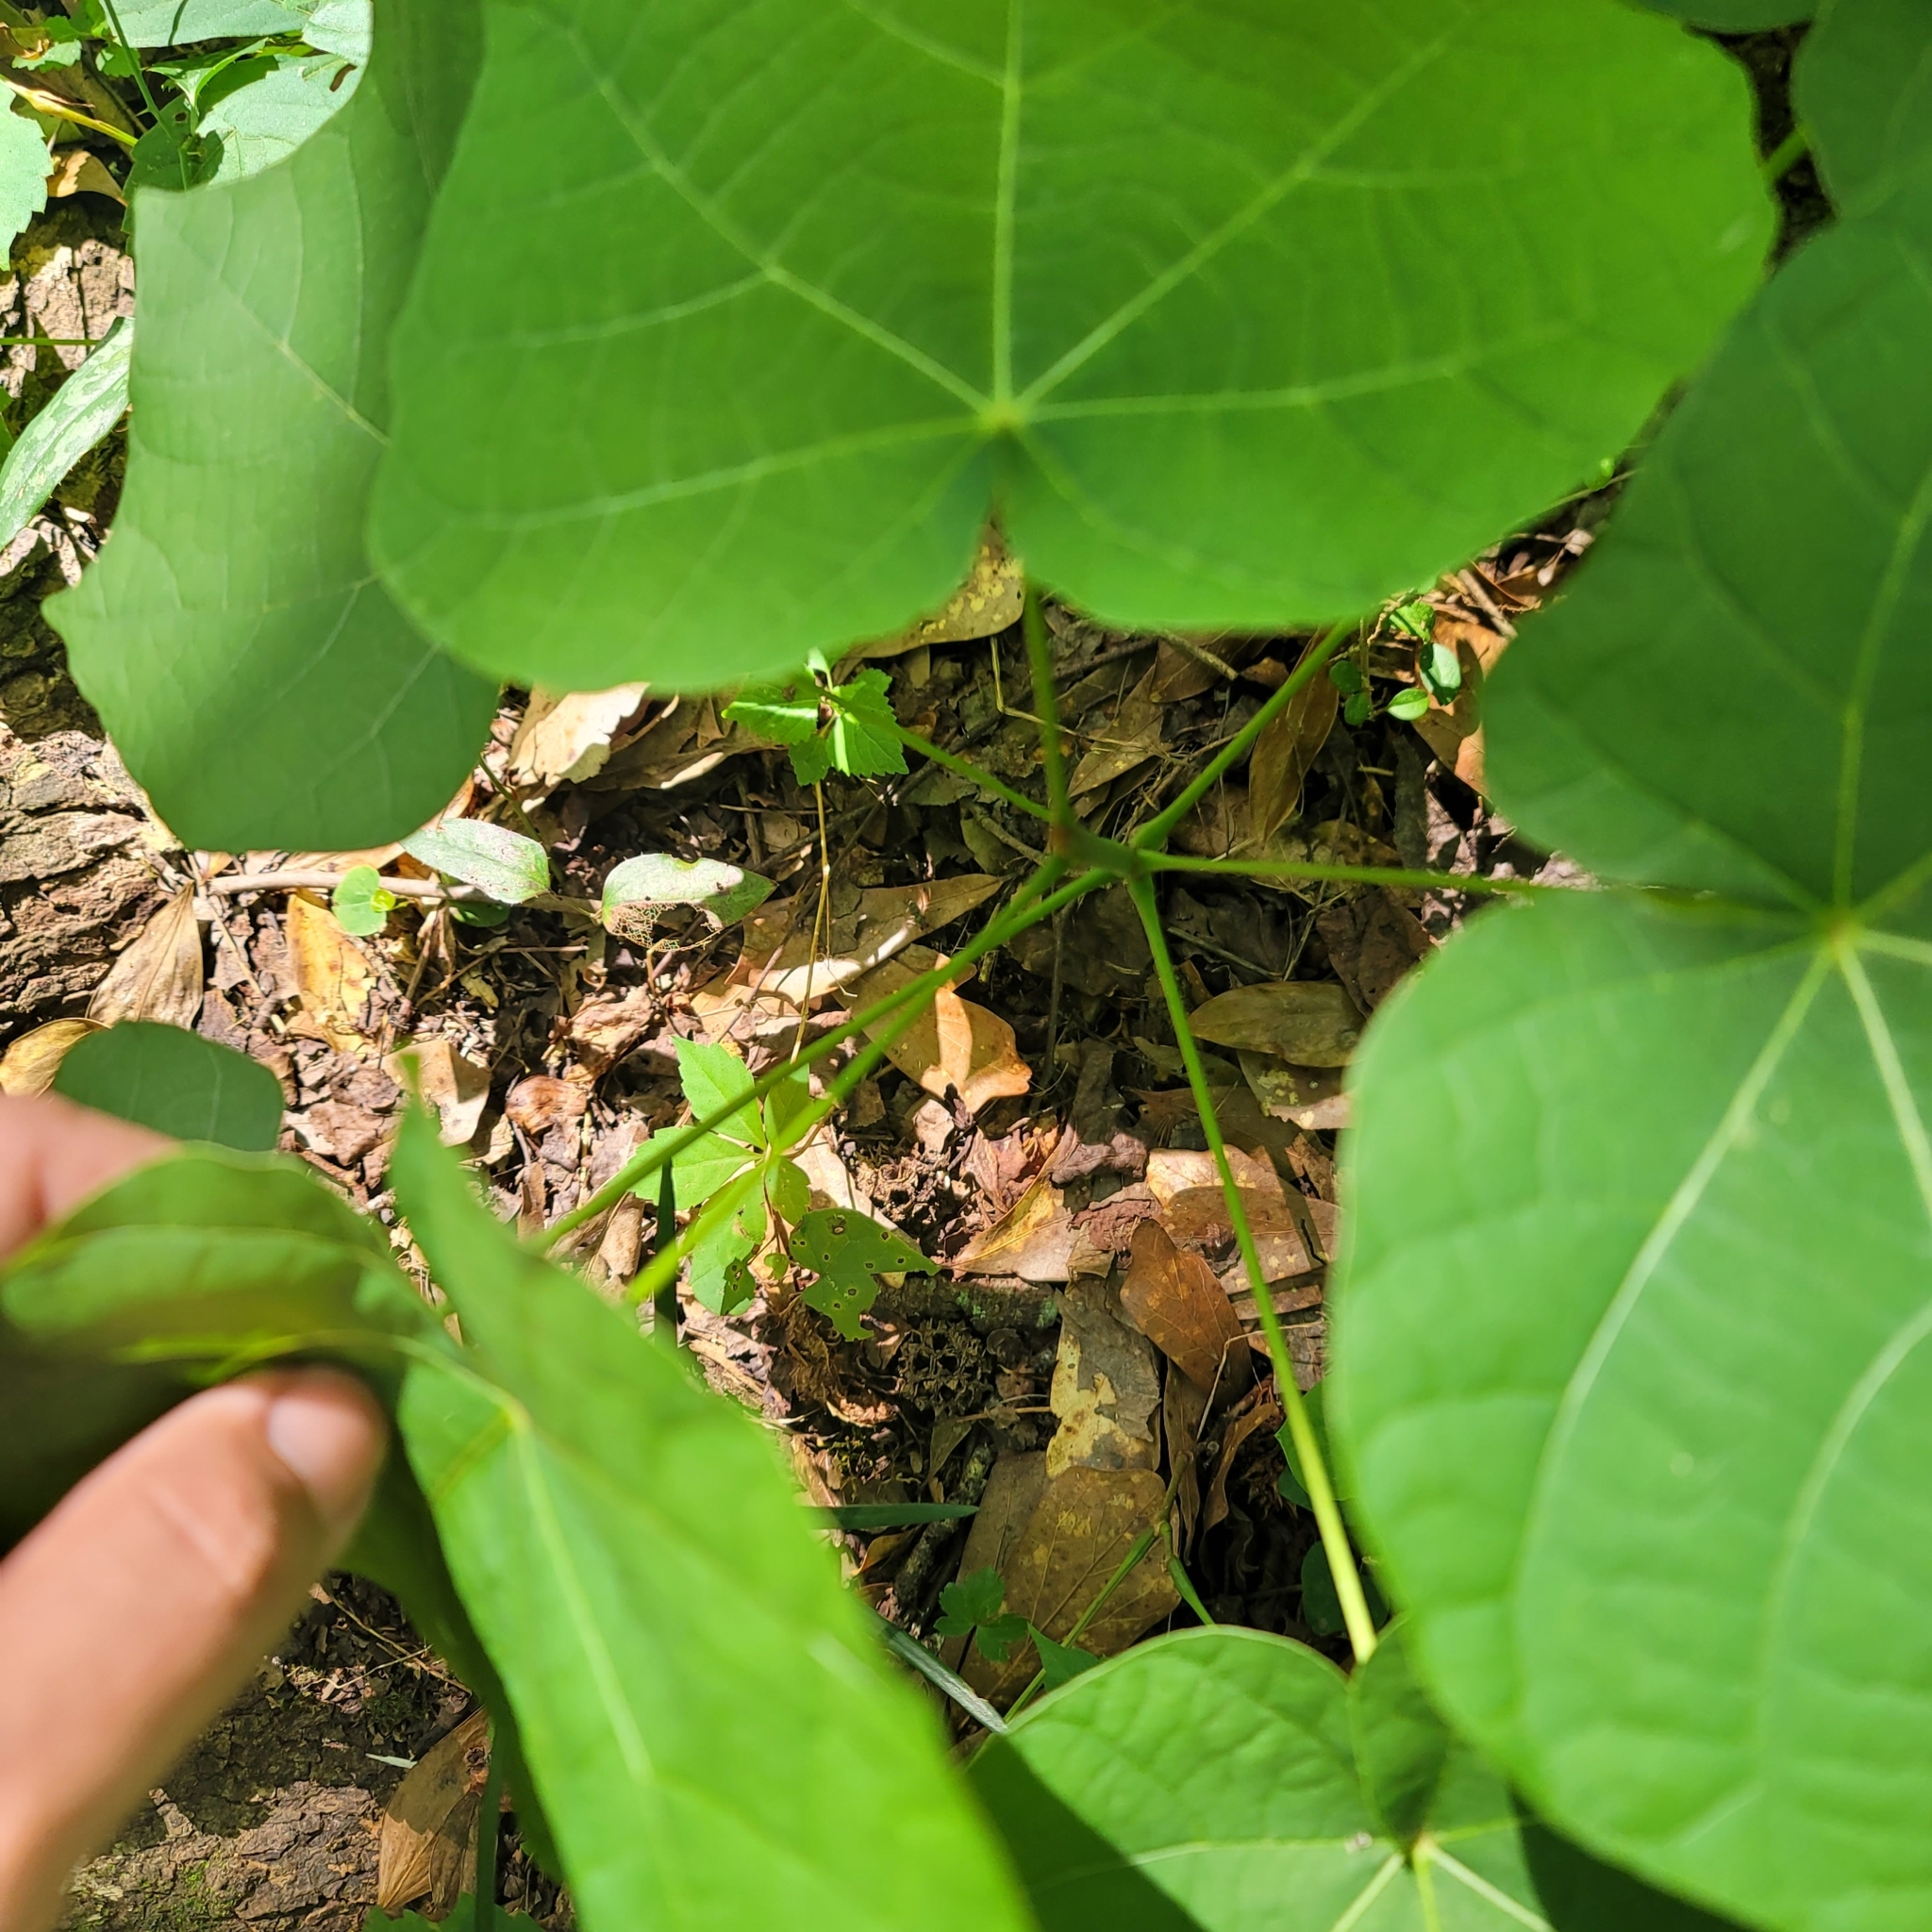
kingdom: Plantae
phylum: Tracheophyta
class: Magnoliopsida
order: Malvales
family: Malvaceae
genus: Firmiana
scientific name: Firmiana simplex
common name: Chinese parasoltree
